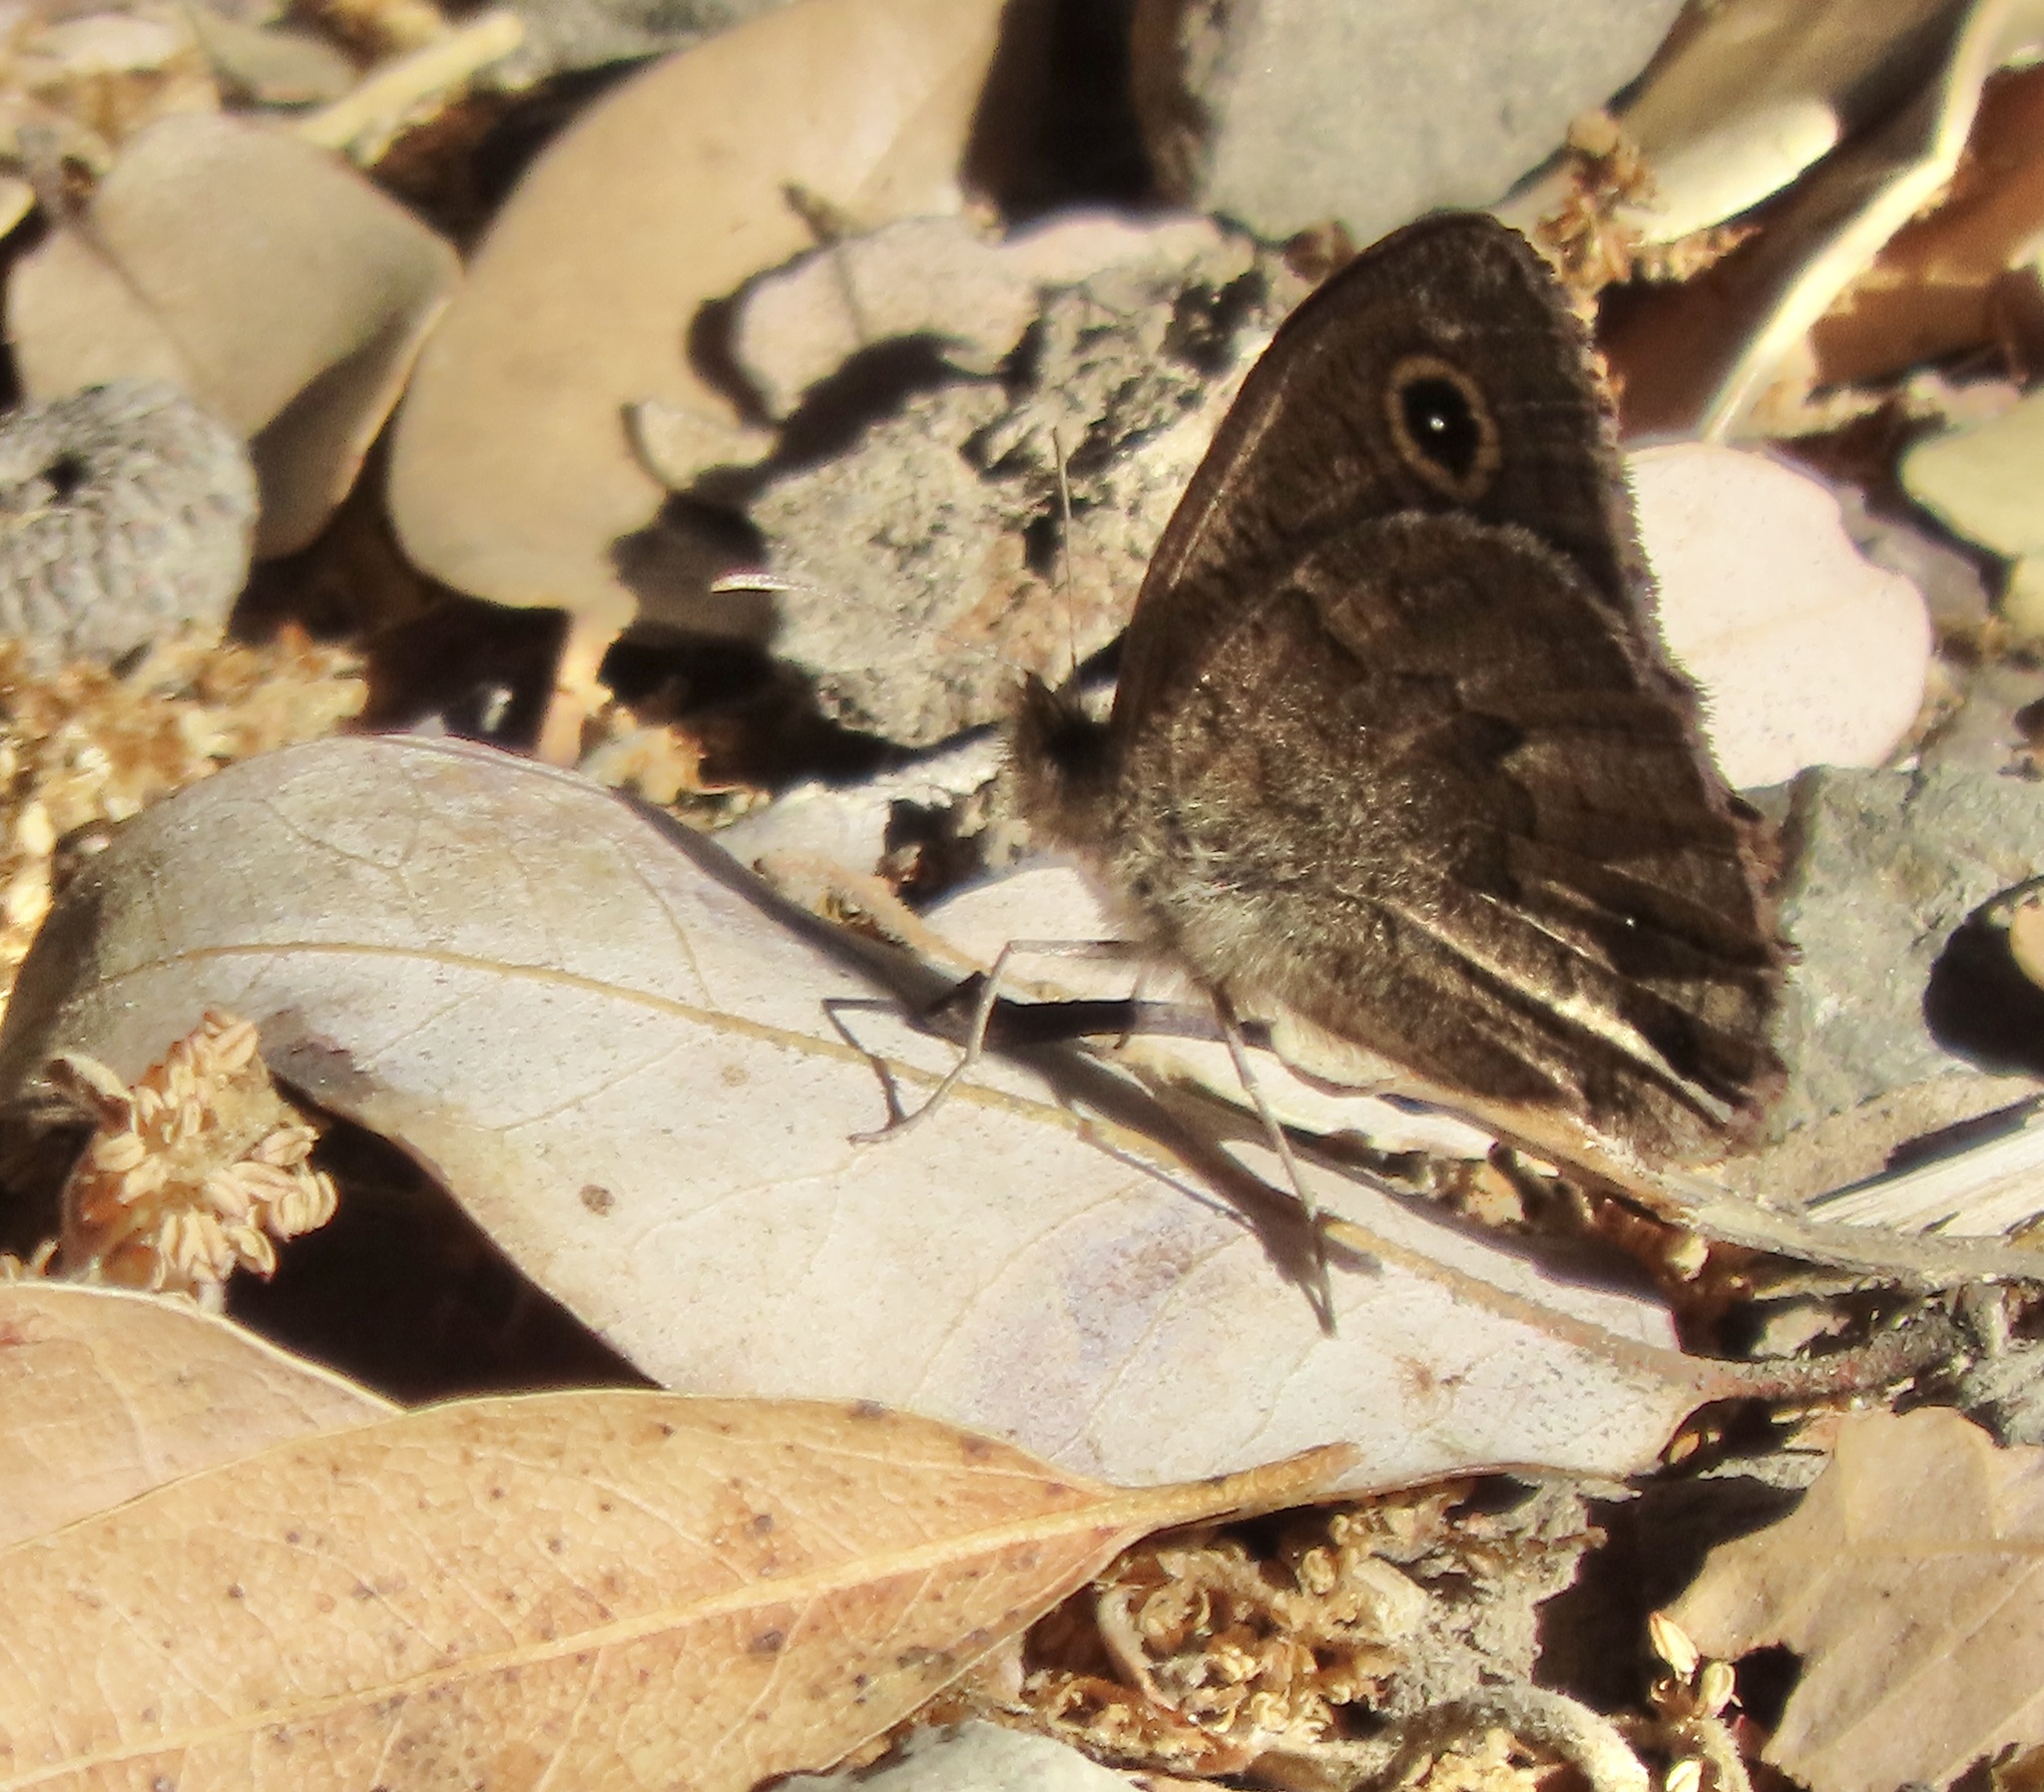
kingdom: Animalia
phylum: Arthropoda
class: Insecta
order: Lepidoptera
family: Nymphalidae
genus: Cercyonis
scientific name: Cercyonis sthenele
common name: Great basin wood-nymph
